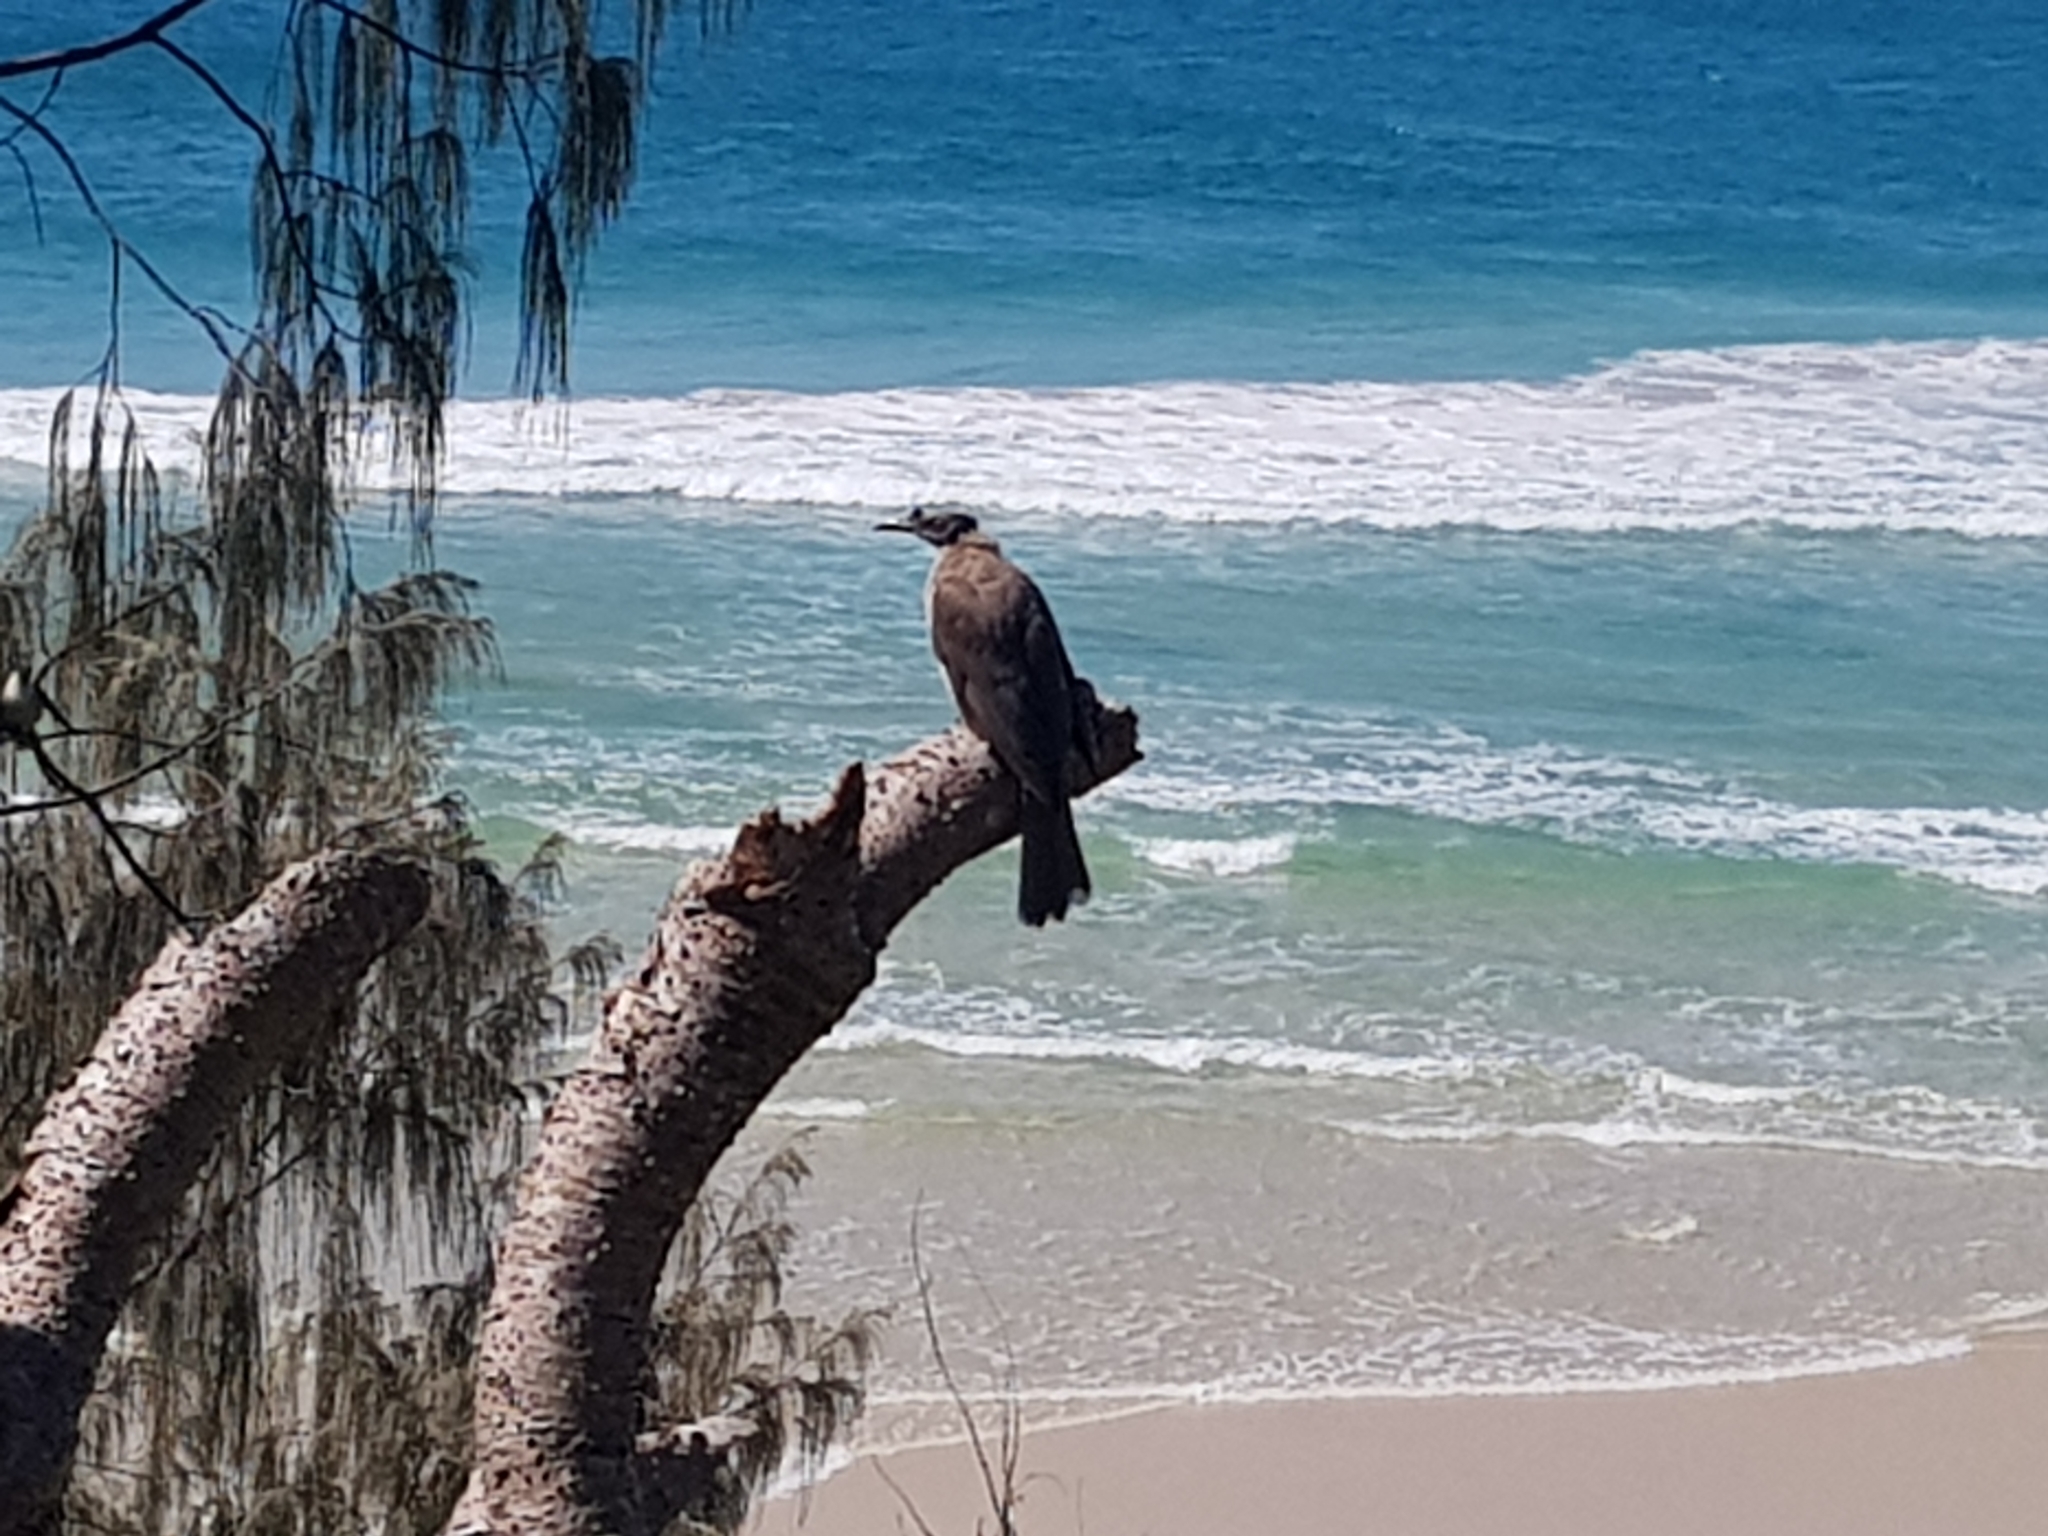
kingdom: Animalia
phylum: Chordata
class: Aves
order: Passeriformes
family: Meliphagidae
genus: Philemon
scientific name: Philemon corniculatus
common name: Noisy friarbird
